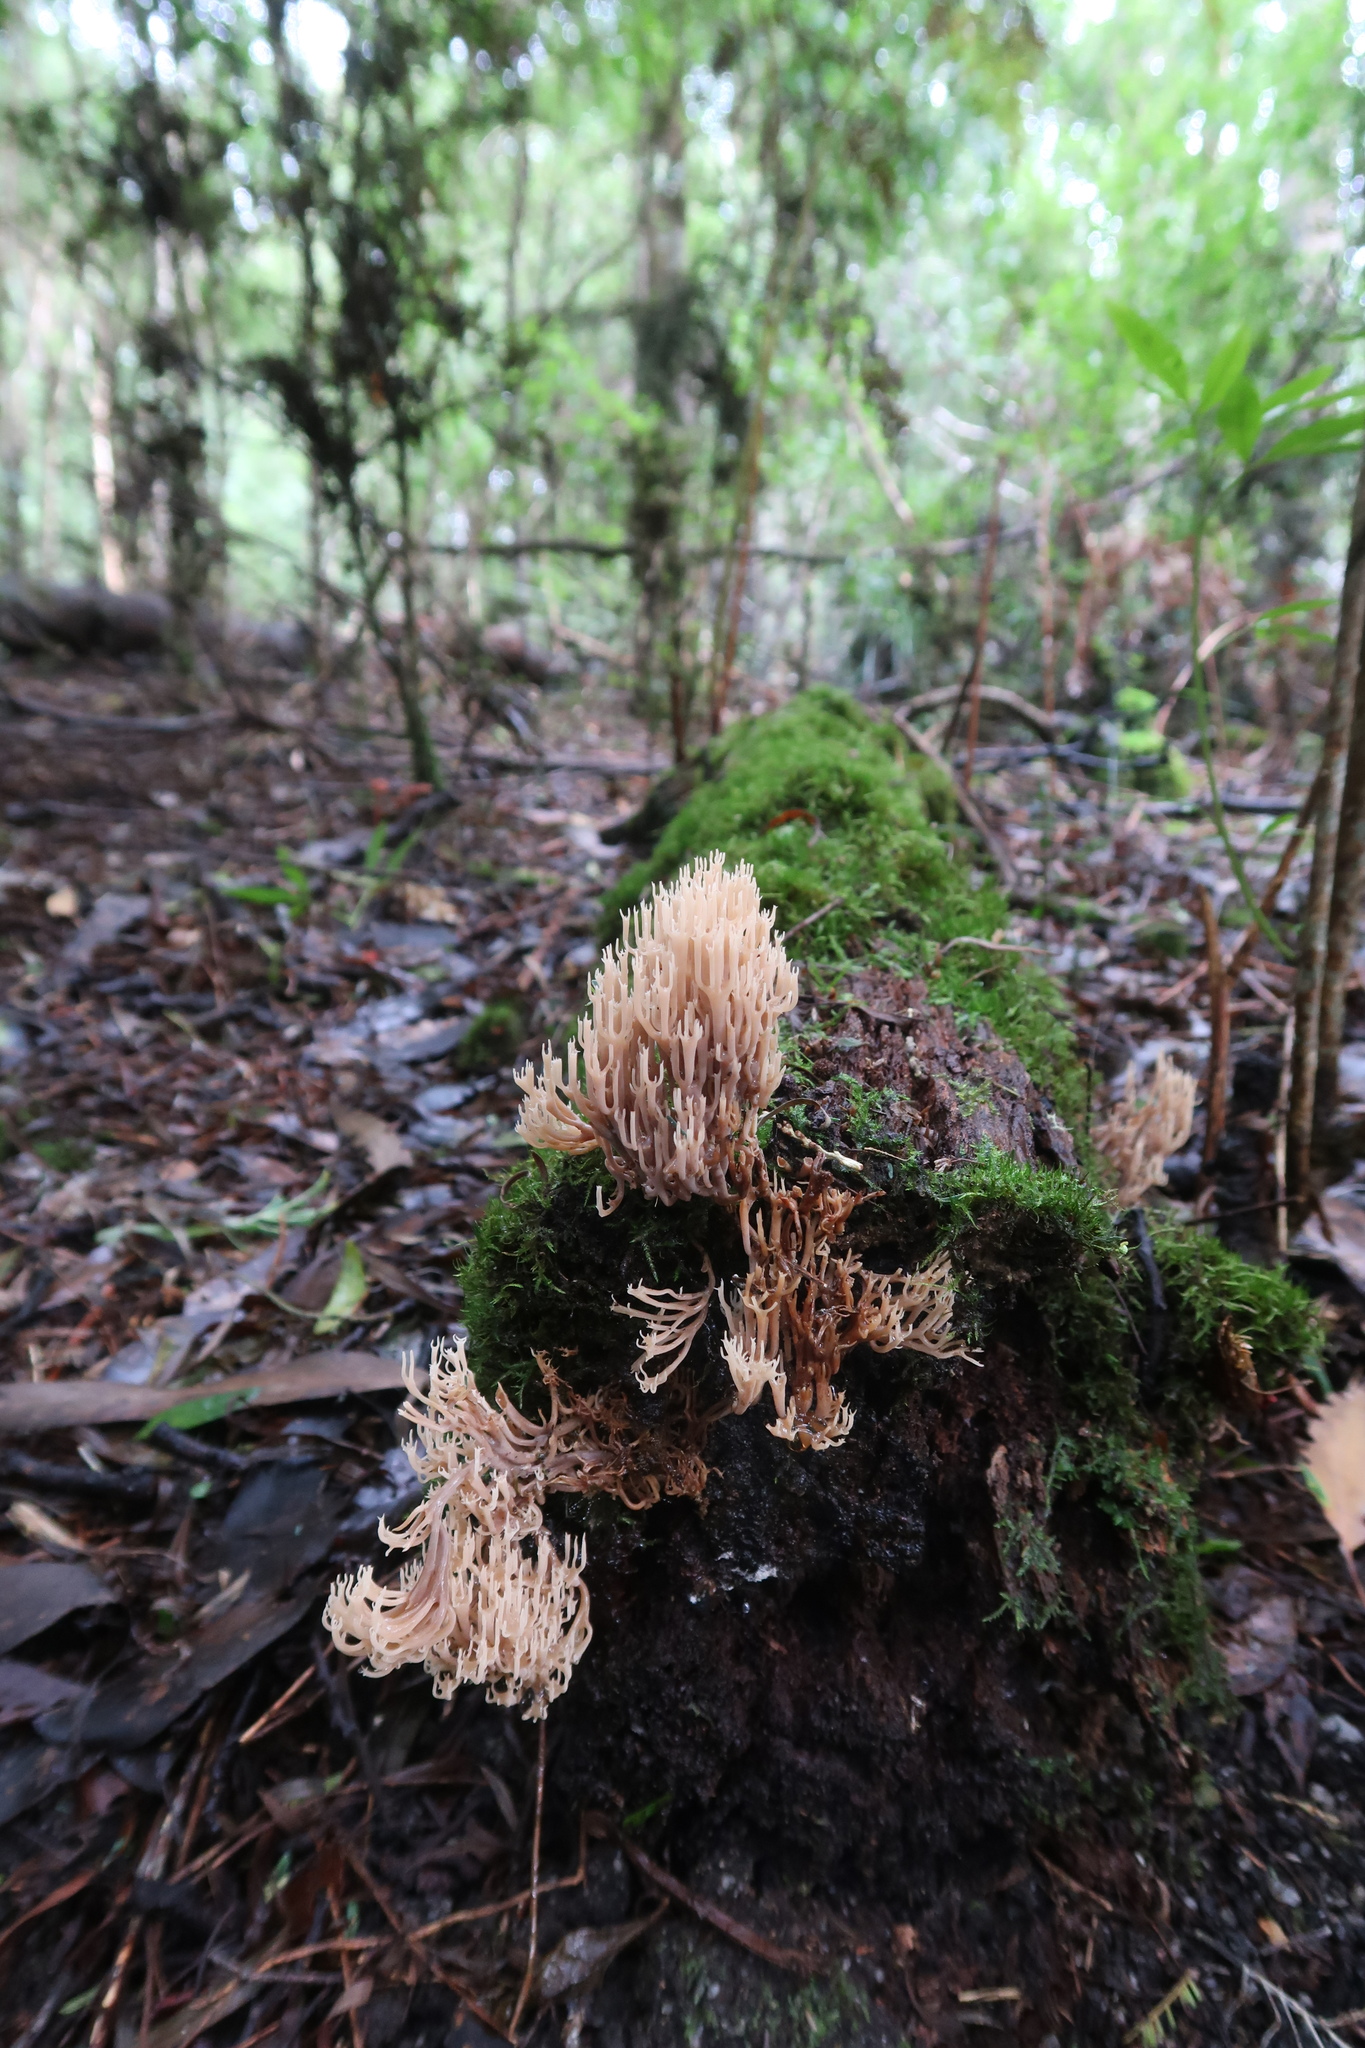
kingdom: Fungi
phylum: Basidiomycota
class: Agaricomycetes
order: Russulales
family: Auriscalpiaceae
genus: Artomyces
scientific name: Artomyces
